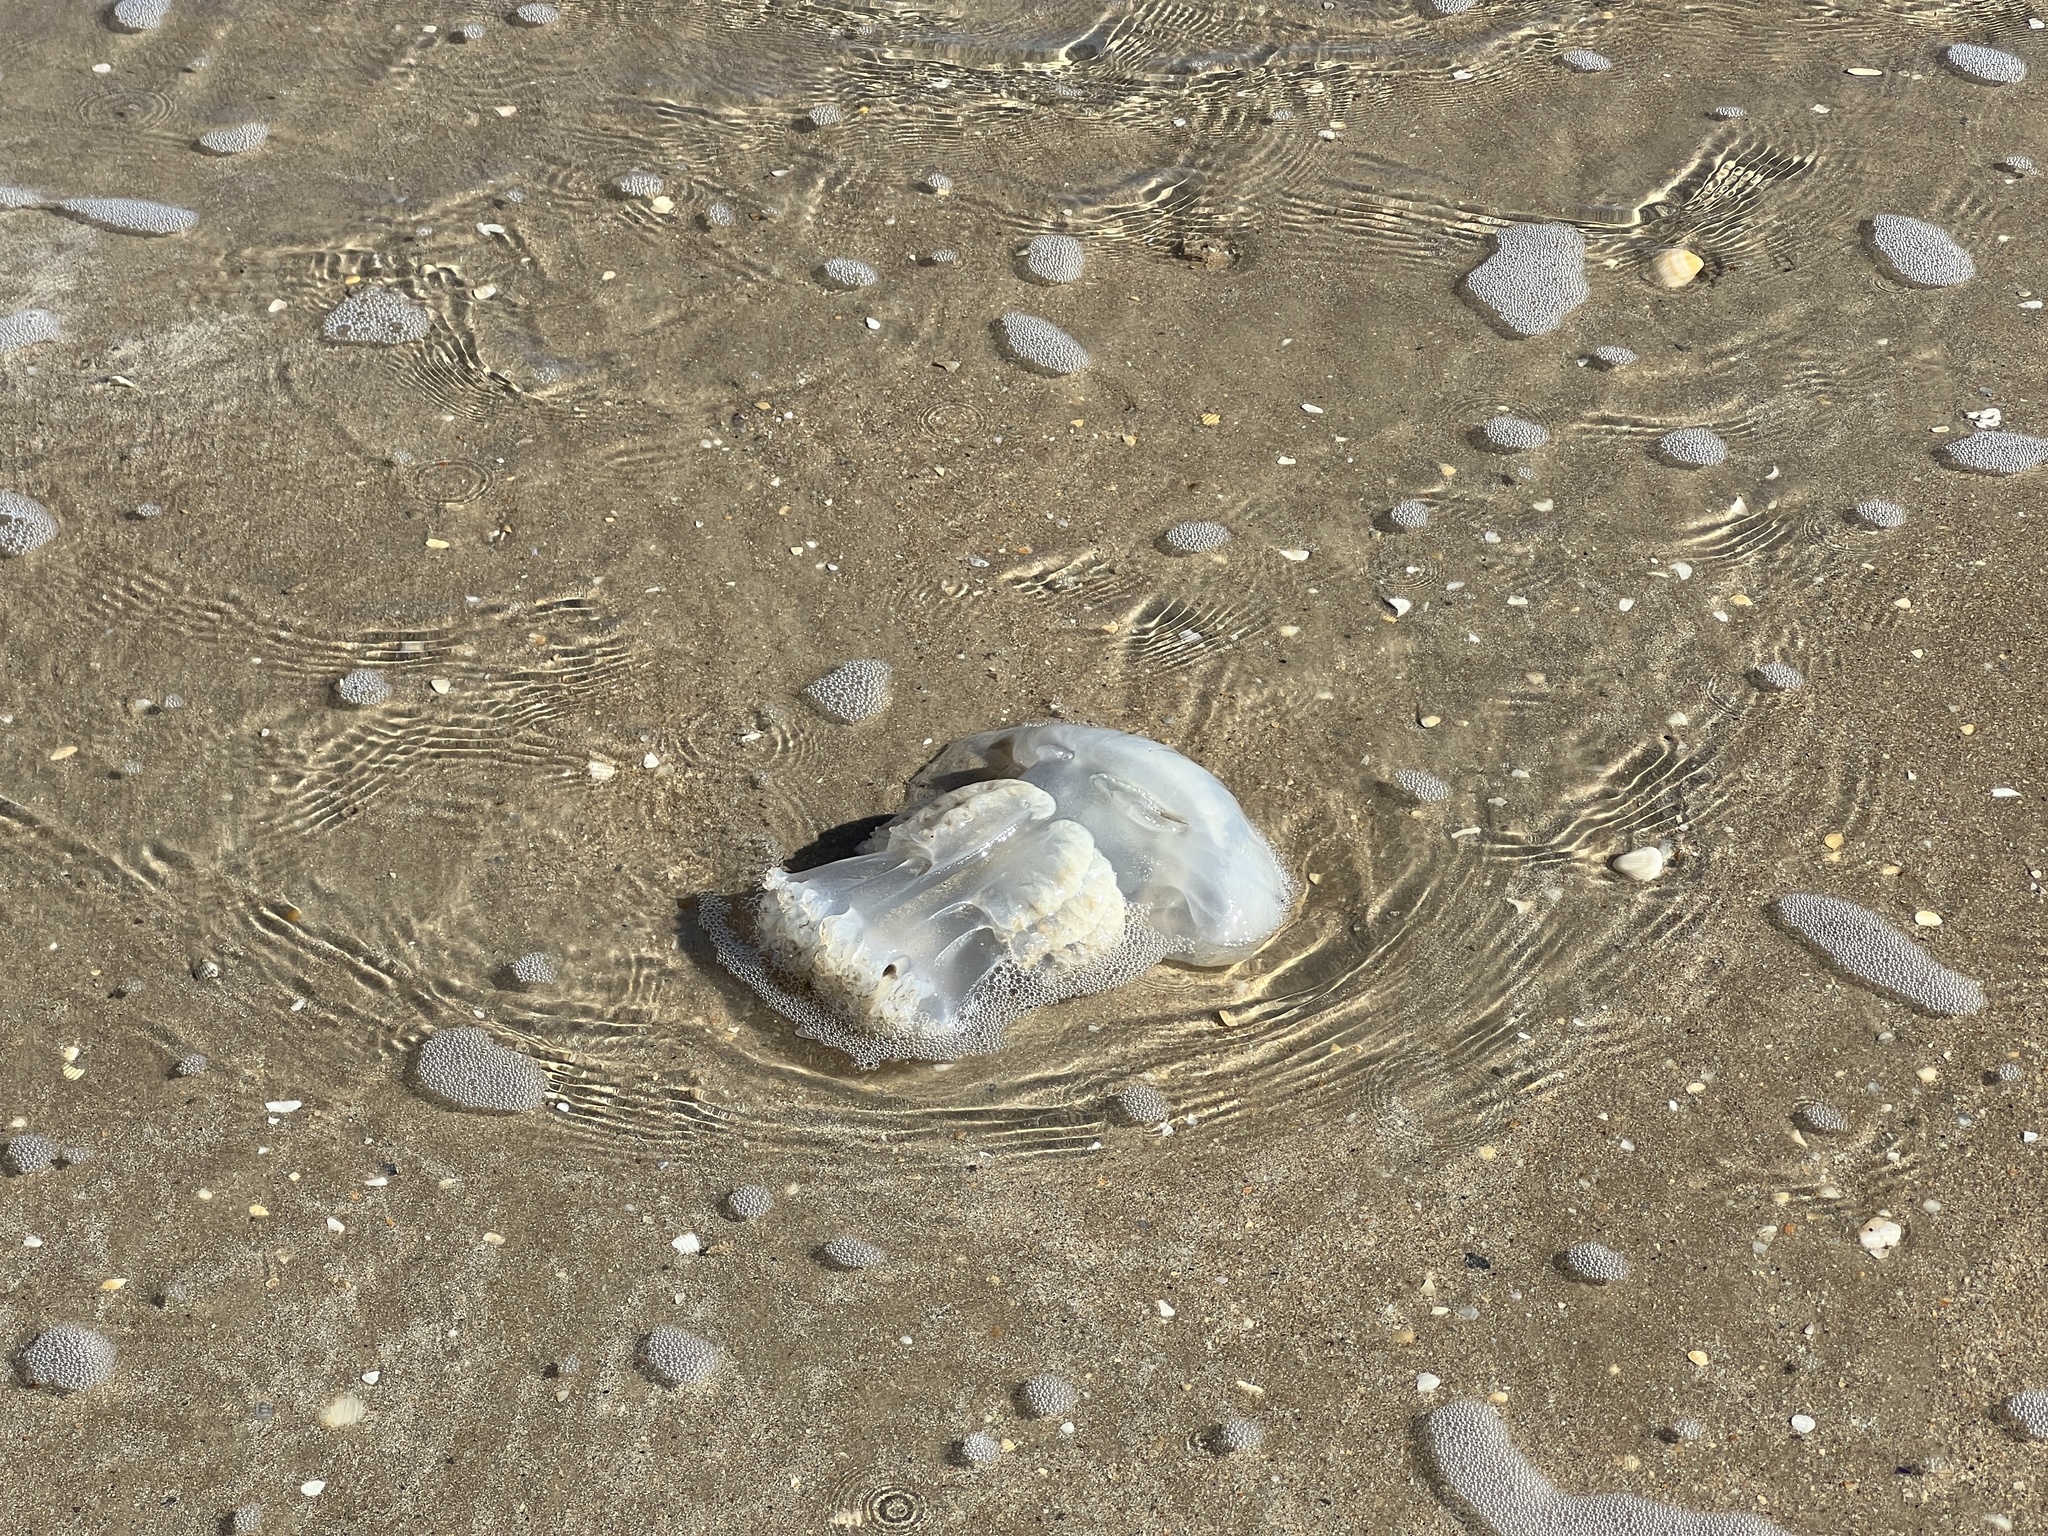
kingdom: Animalia
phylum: Cnidaria
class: Scyphozoa
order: Rhizostomeae
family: Stomolophidae
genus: Stomolophus
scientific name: Stomolophus meleagris
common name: Cabbagehead
